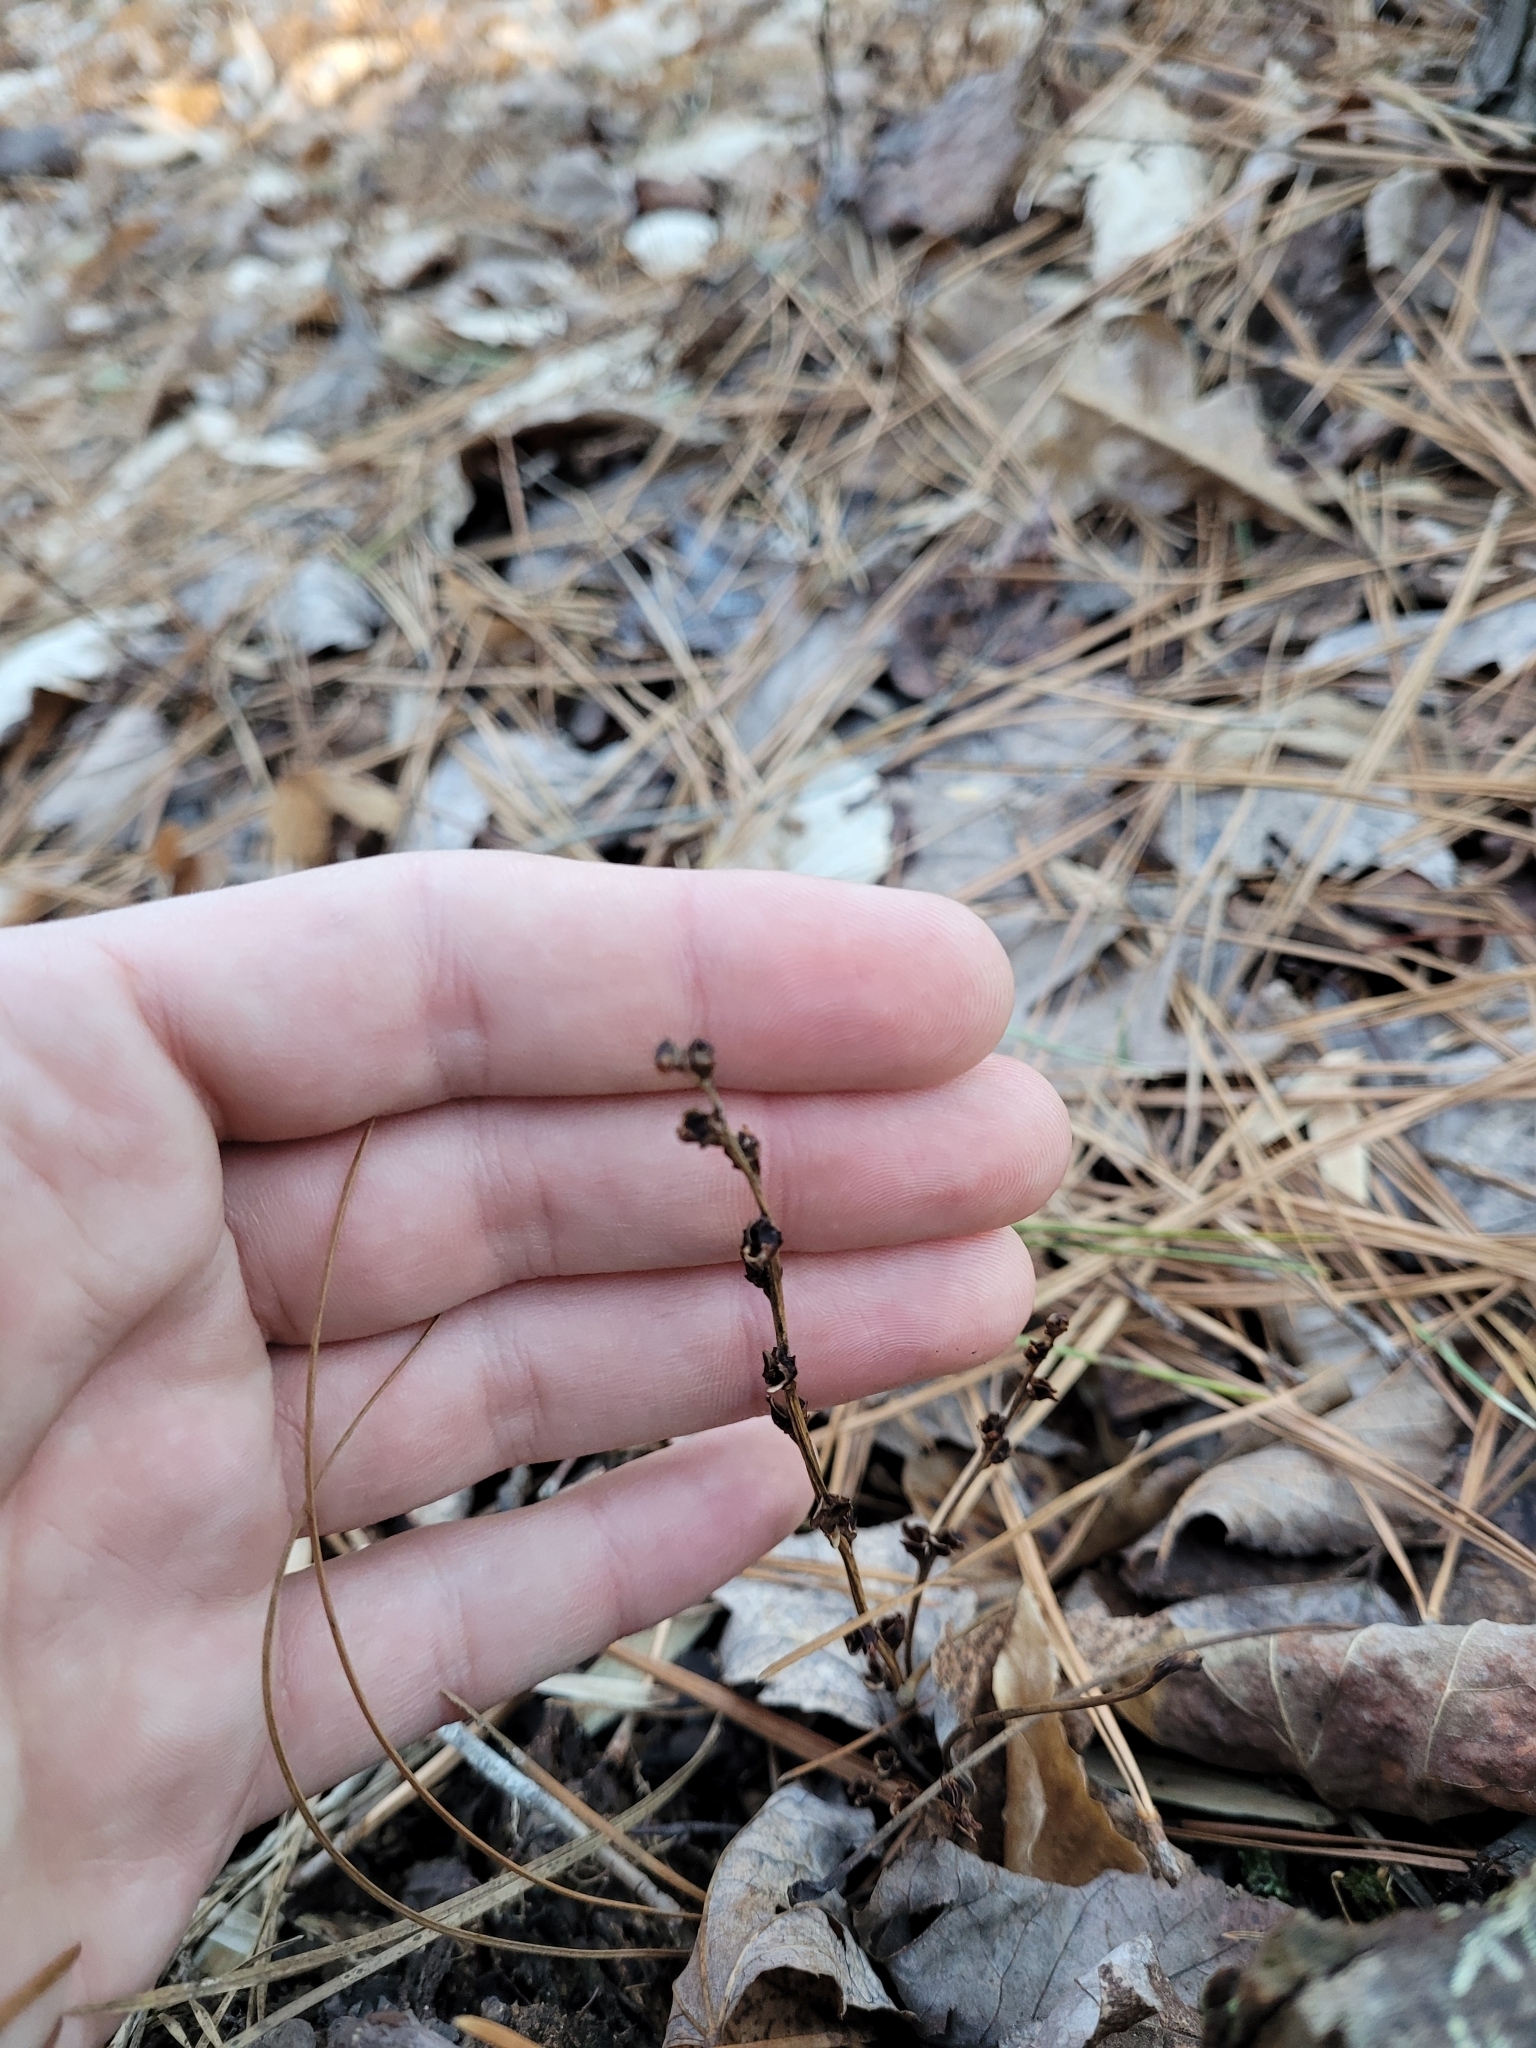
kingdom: Plantae
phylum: Tracheophyta
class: Magnoliopsida
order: Lamiales
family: Orobanchaceae
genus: Epifagus
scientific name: Epifagus virginiana
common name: Beechdrops
